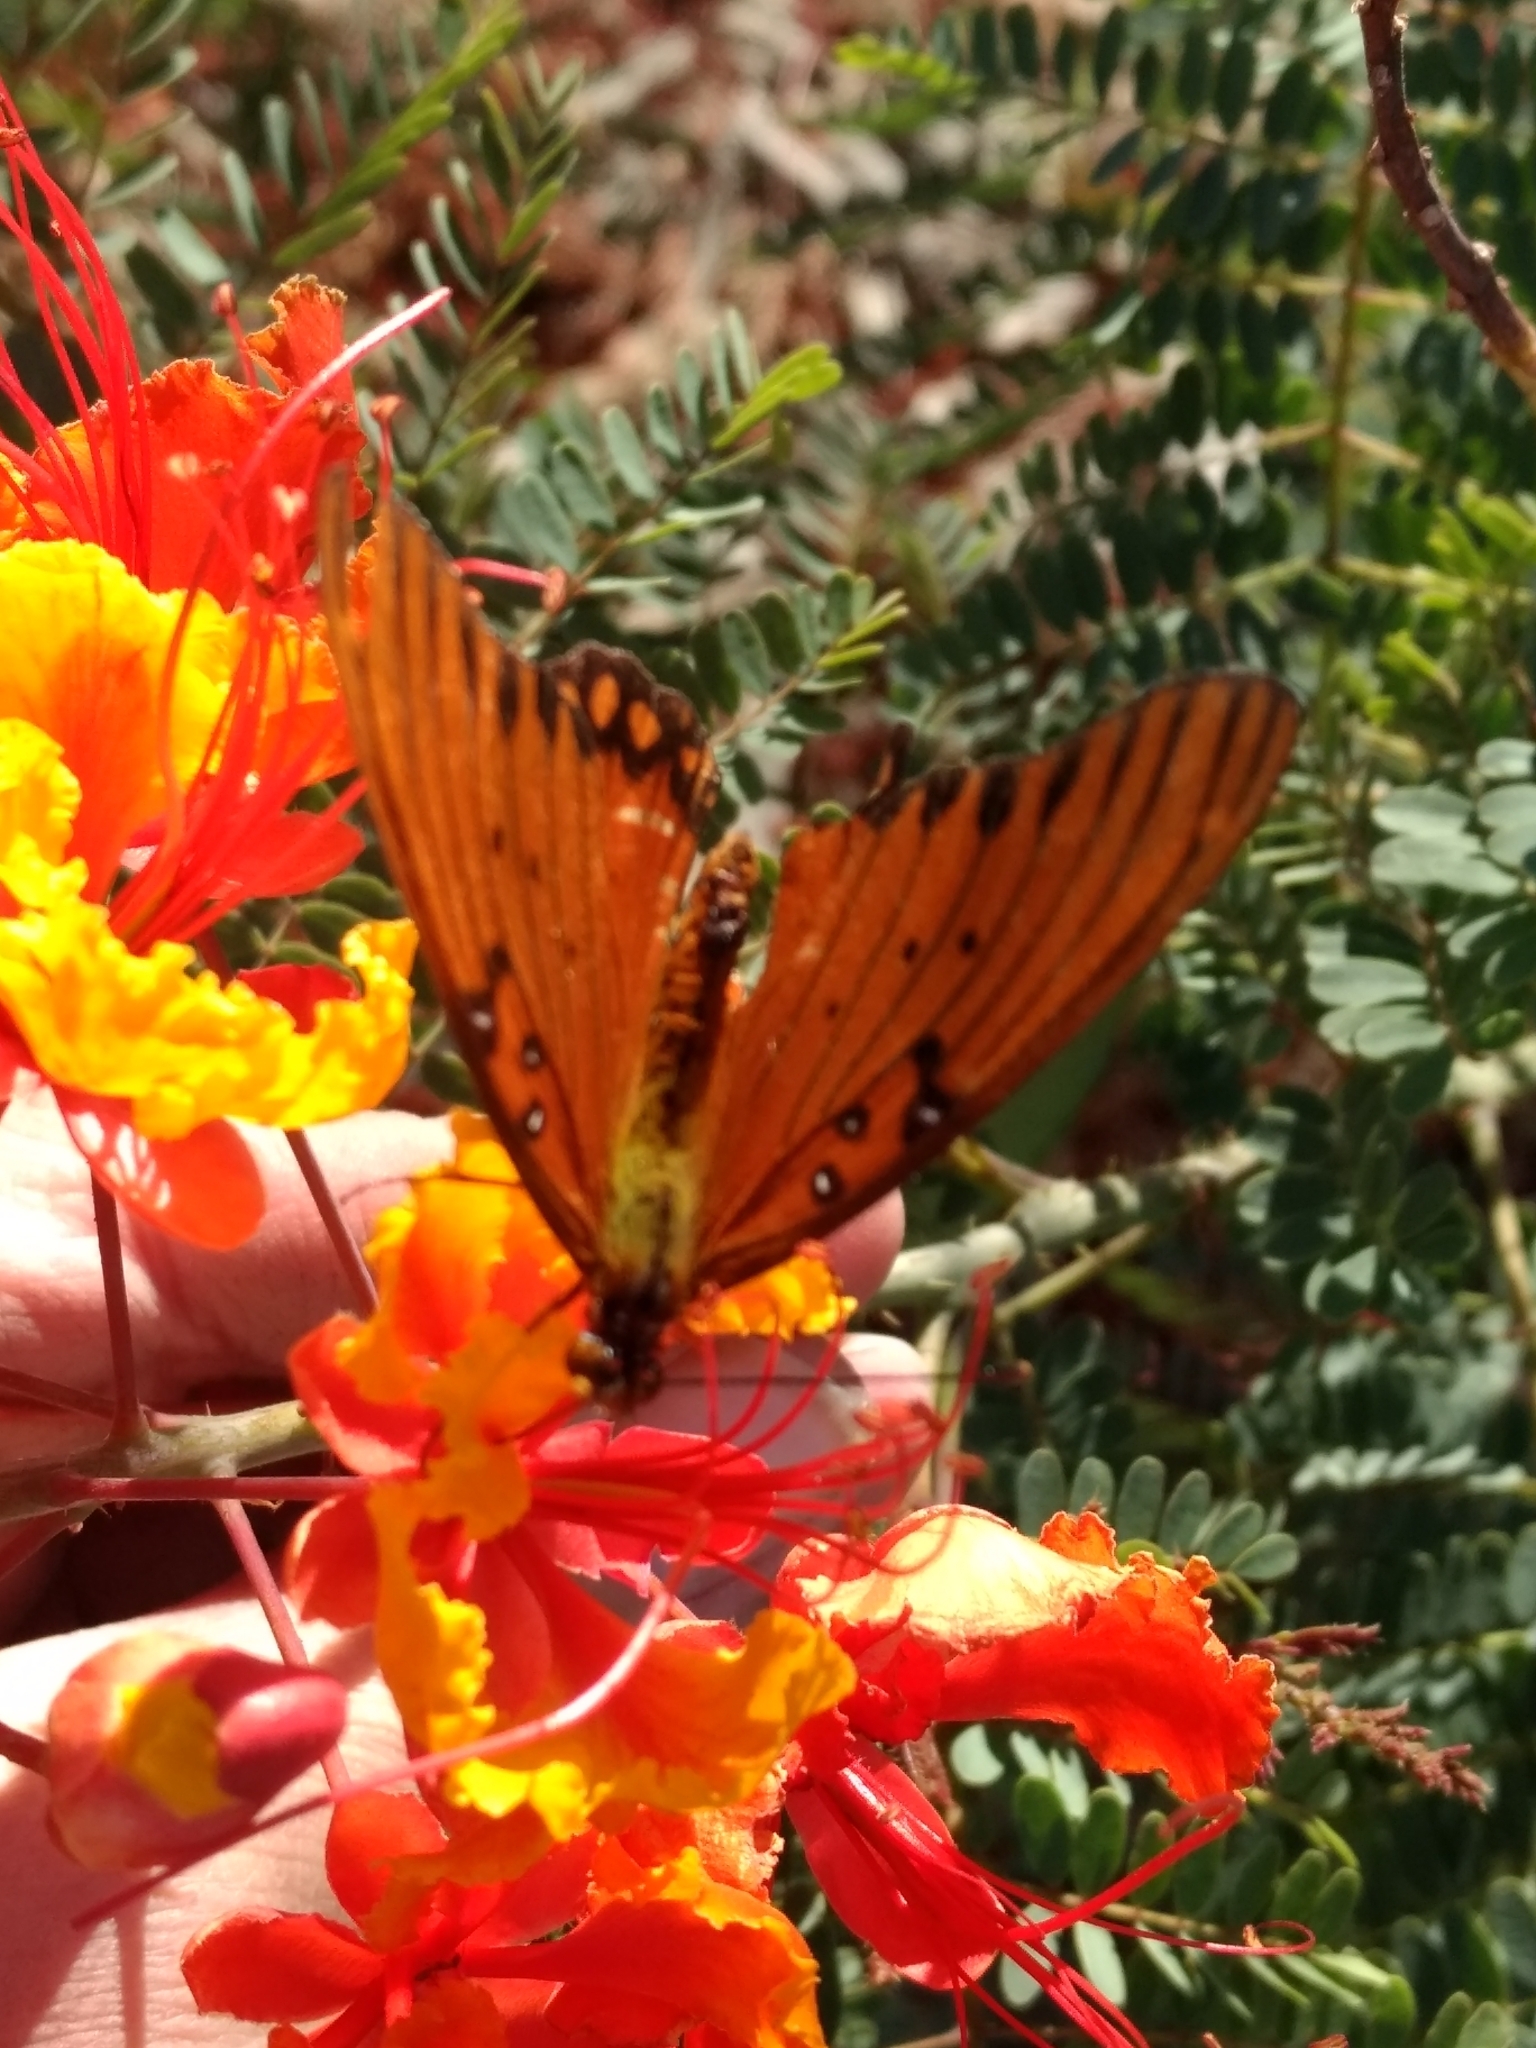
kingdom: Animalia
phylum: Arthropoda
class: Insecta
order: Lepidoptera
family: Nymphalidae
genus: Dione
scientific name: Dione vanillae
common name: Gulf fritillary
